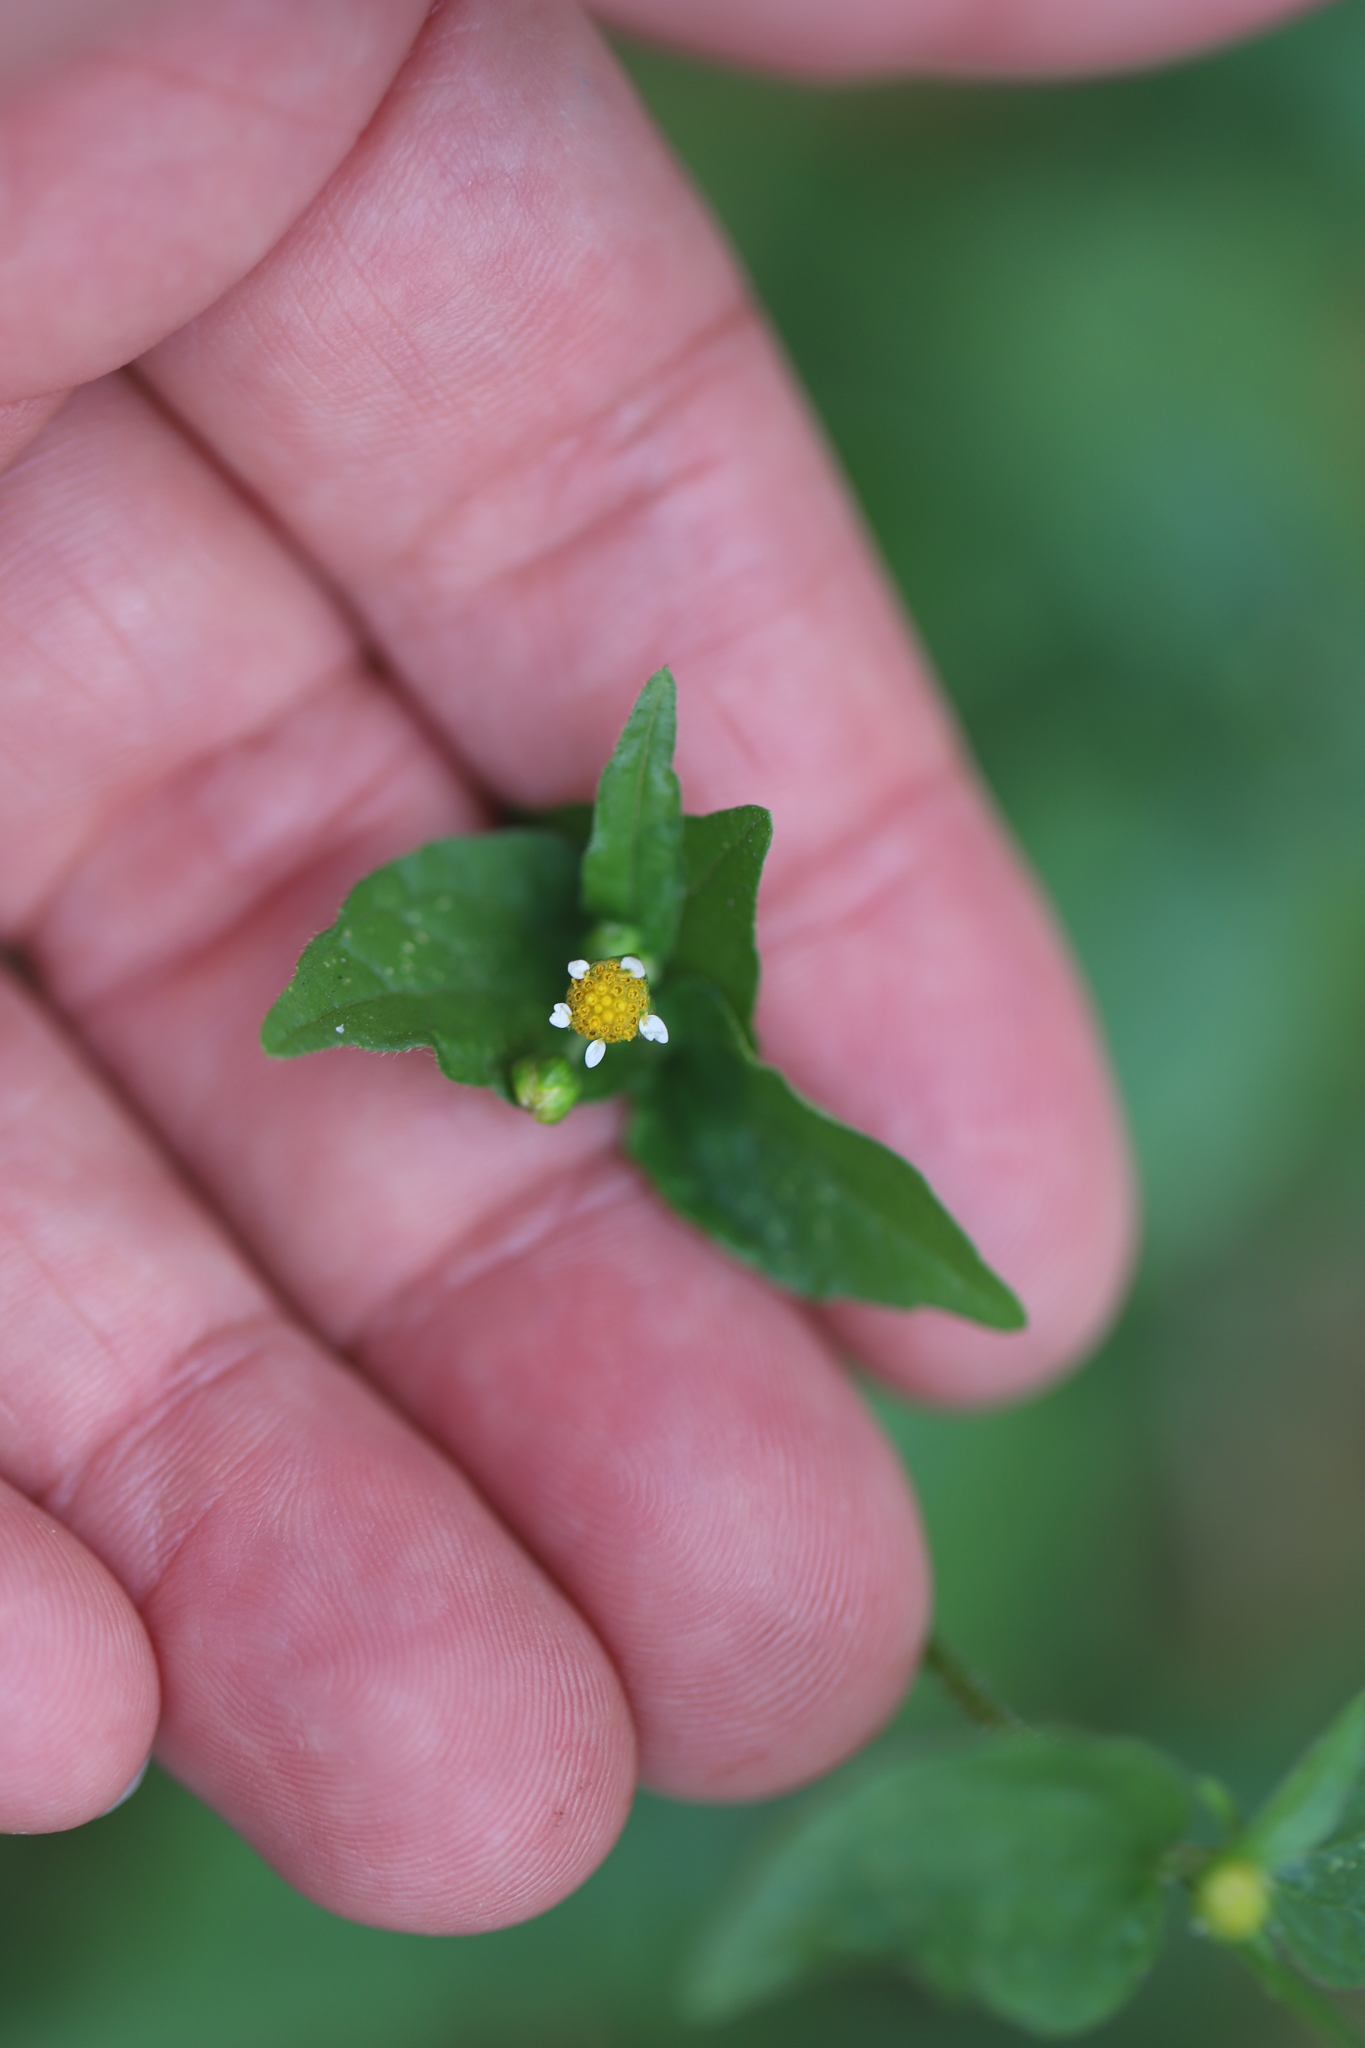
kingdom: Plantae
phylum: Tracheophyta
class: Magnoliopsida
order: Asterales
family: Asteraceae
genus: Galinsoga
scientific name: Galinsoga parviflora
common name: Gallant soldier
